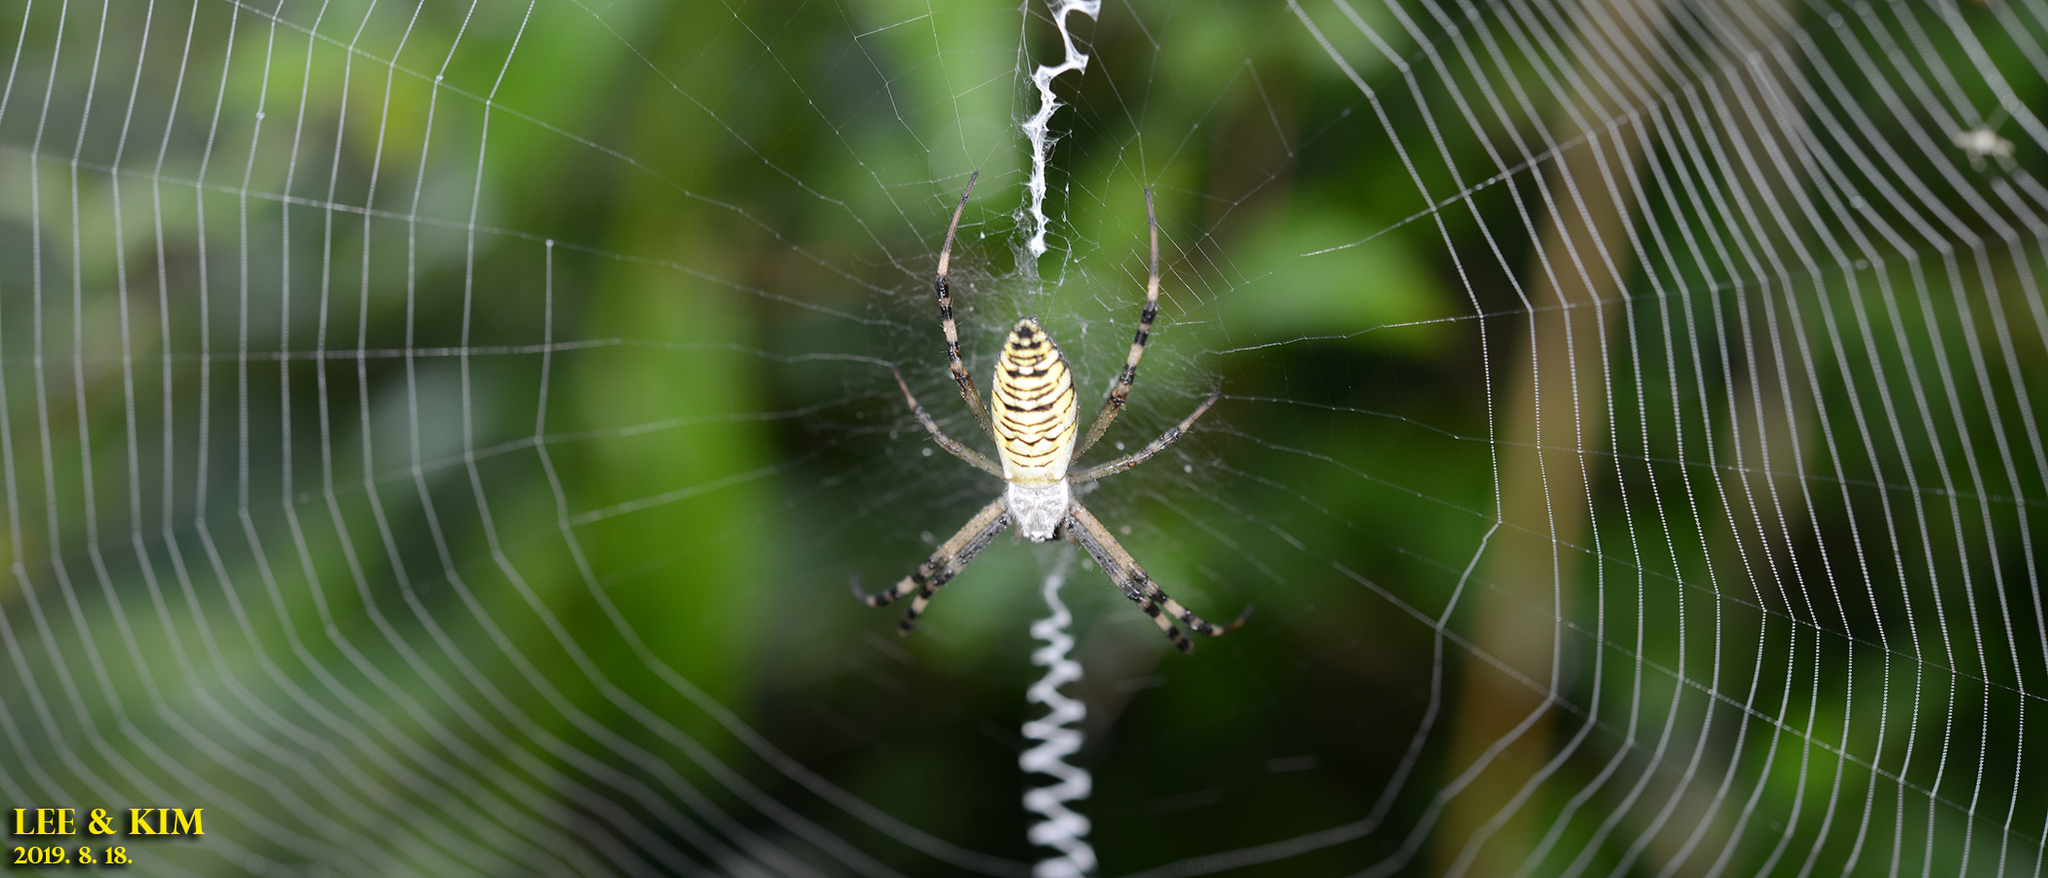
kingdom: Animalia
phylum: Arthropoda
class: Arachnida
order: Araneae
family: Araneidae
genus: Argiope
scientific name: Argiope bruennichi
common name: Wasp spider
